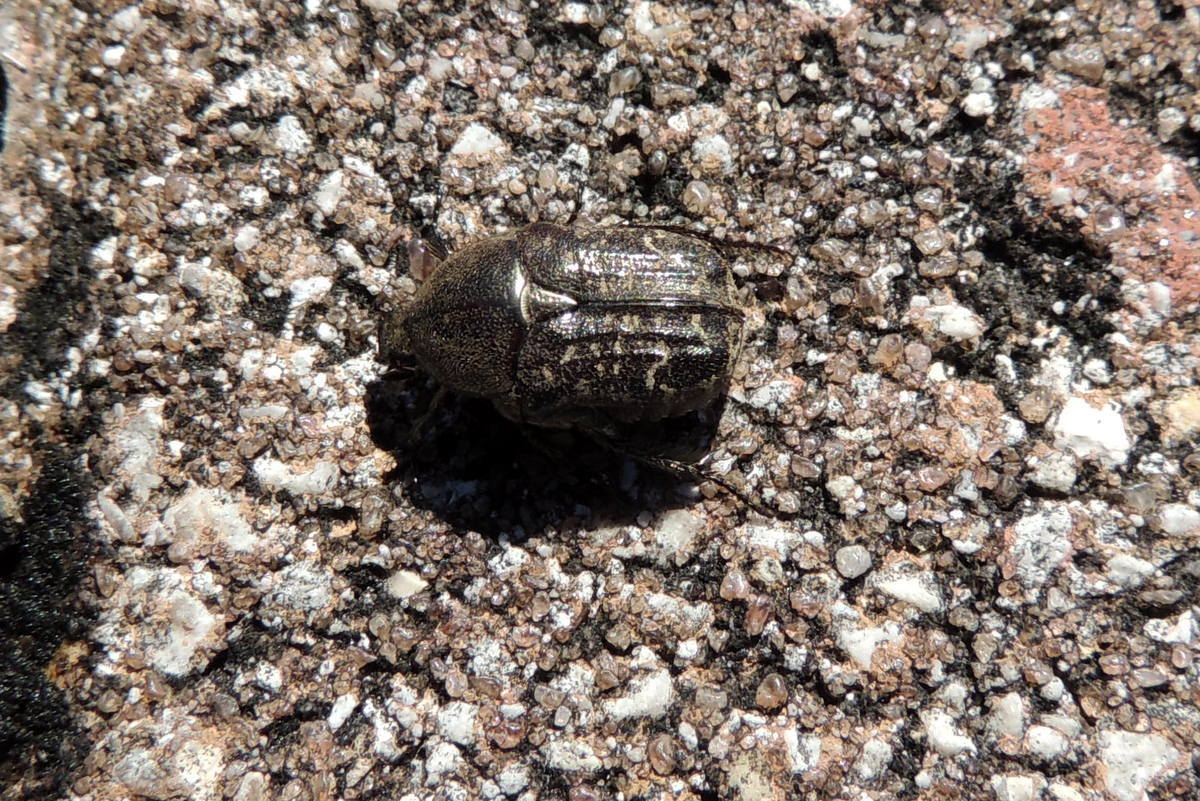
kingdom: Animalia
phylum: Arthropoda
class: Insecta
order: Coleoptera
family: Scarabaeidae
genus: Euphoria
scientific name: Euphoria sepulcralis
